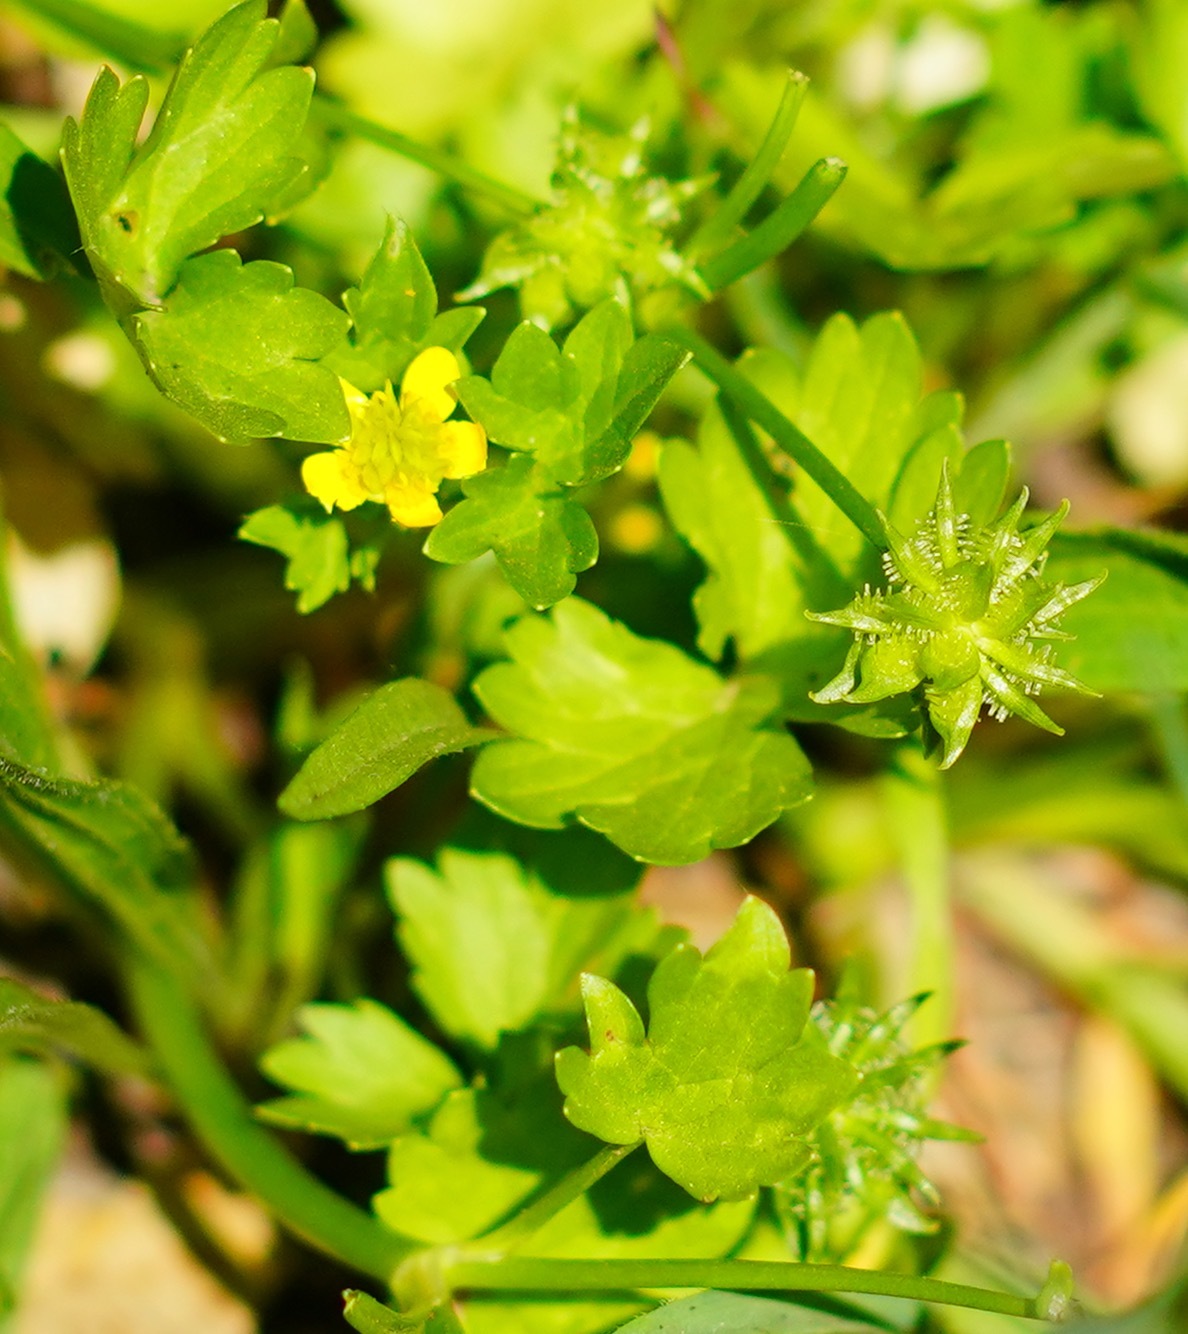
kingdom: Plantae
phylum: Tracheophyta
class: Magnoliopsida
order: Ranunculales
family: Ranunculaceae
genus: Ranunculus
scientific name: Ranunculus muricatus
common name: Rough-fruited buttercup
